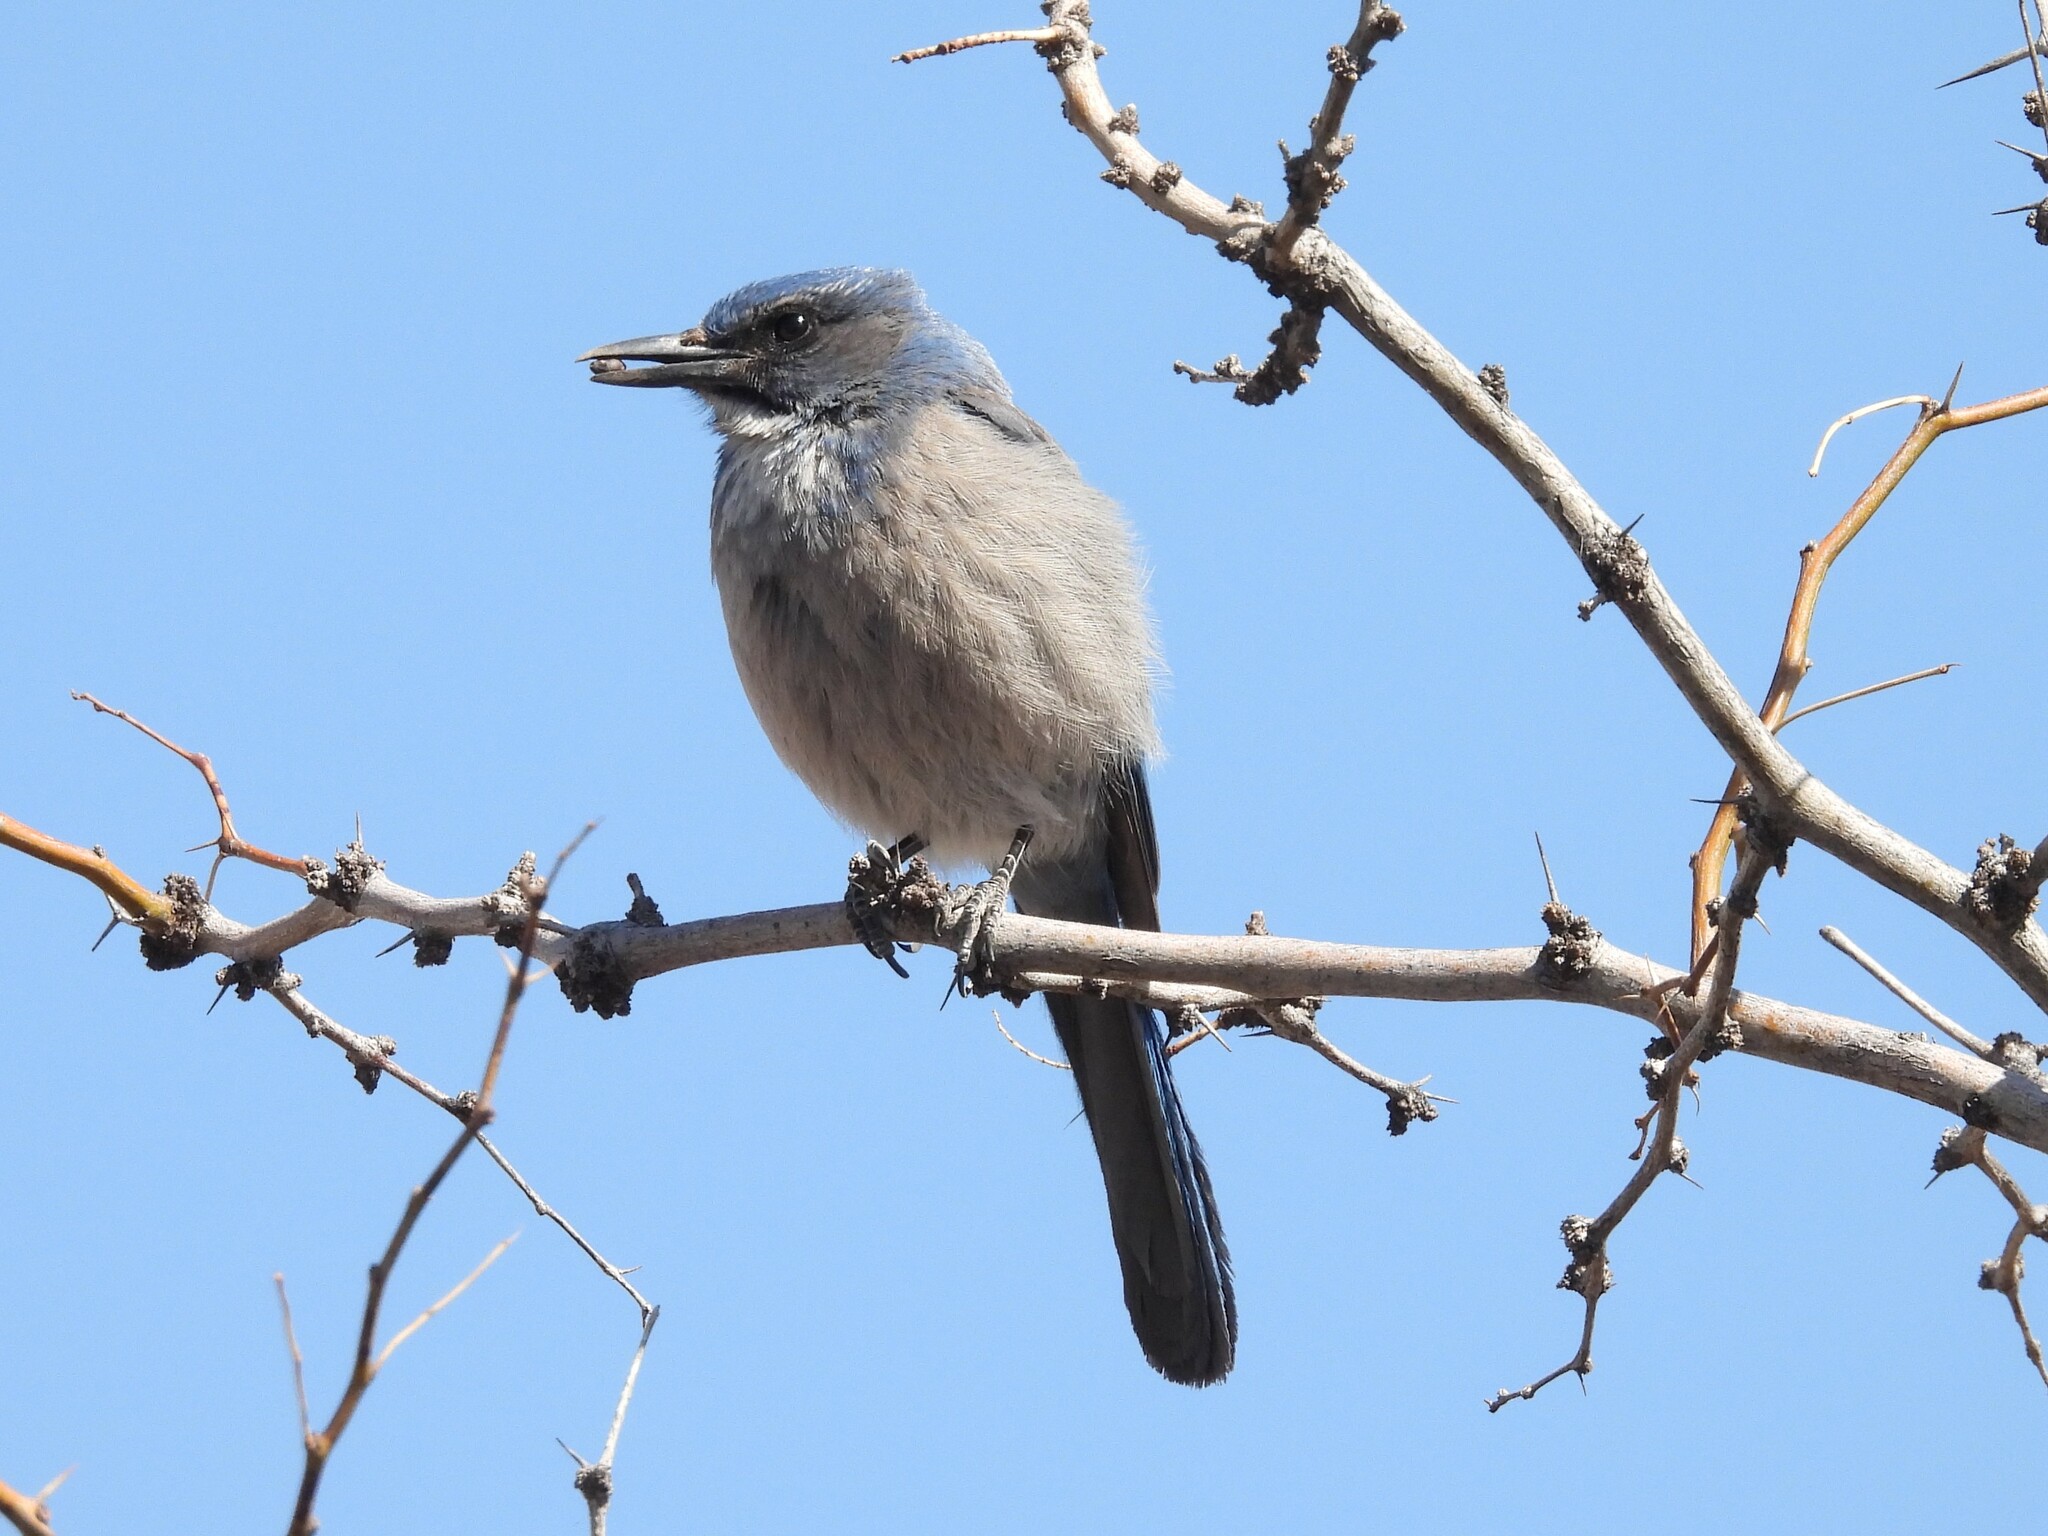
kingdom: Animalia
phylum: Chordata
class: Aves
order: Passeriformes
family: Corvidae
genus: Aphelocoma
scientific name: Aphelocoma woodhouseii
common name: Woodhouse's scrub-jay
